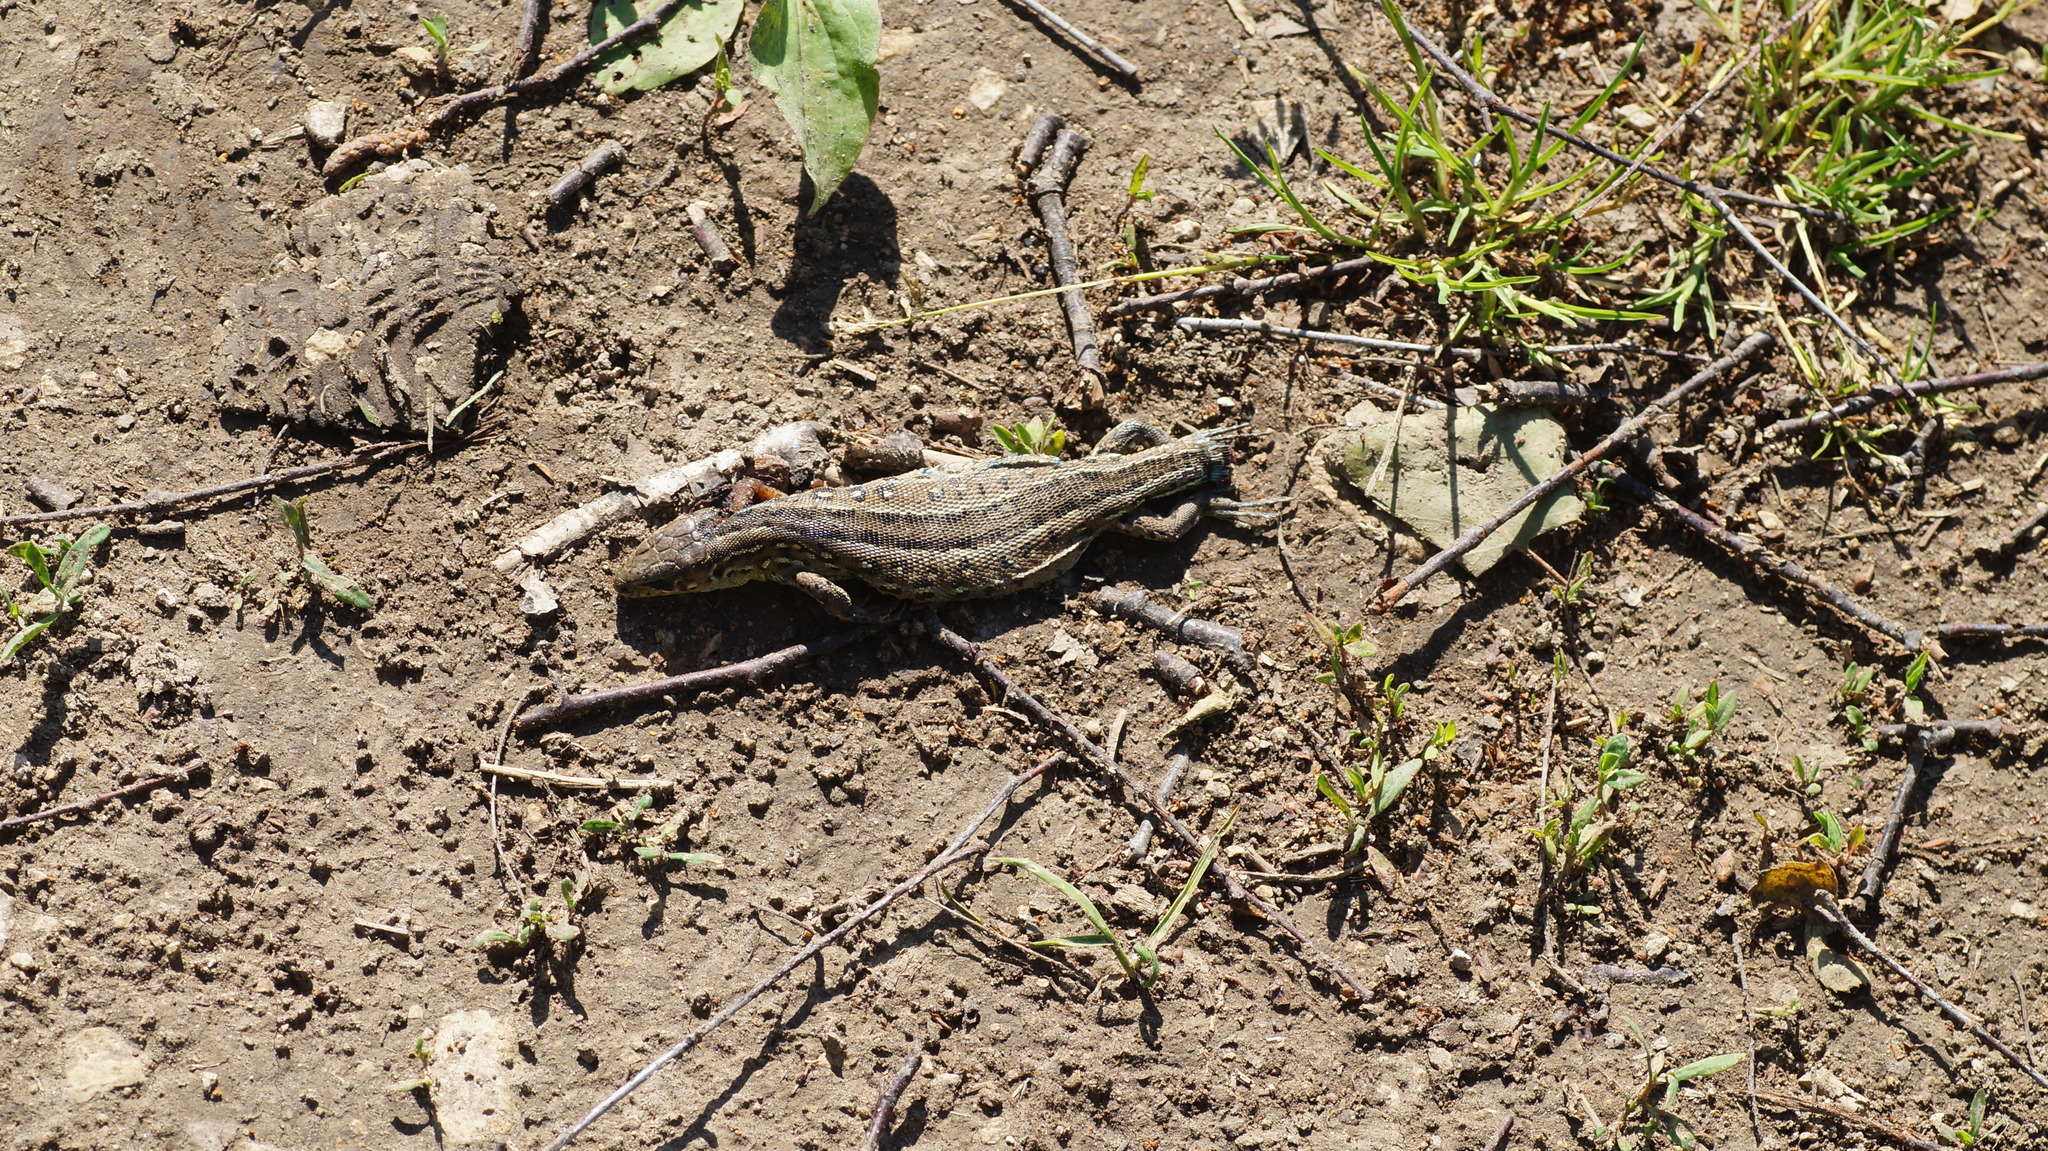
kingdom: Animalia
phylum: Chordata
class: Squamata
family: Lacertidae
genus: Lacerta
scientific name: Lacerta agilis
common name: Sand lizard
